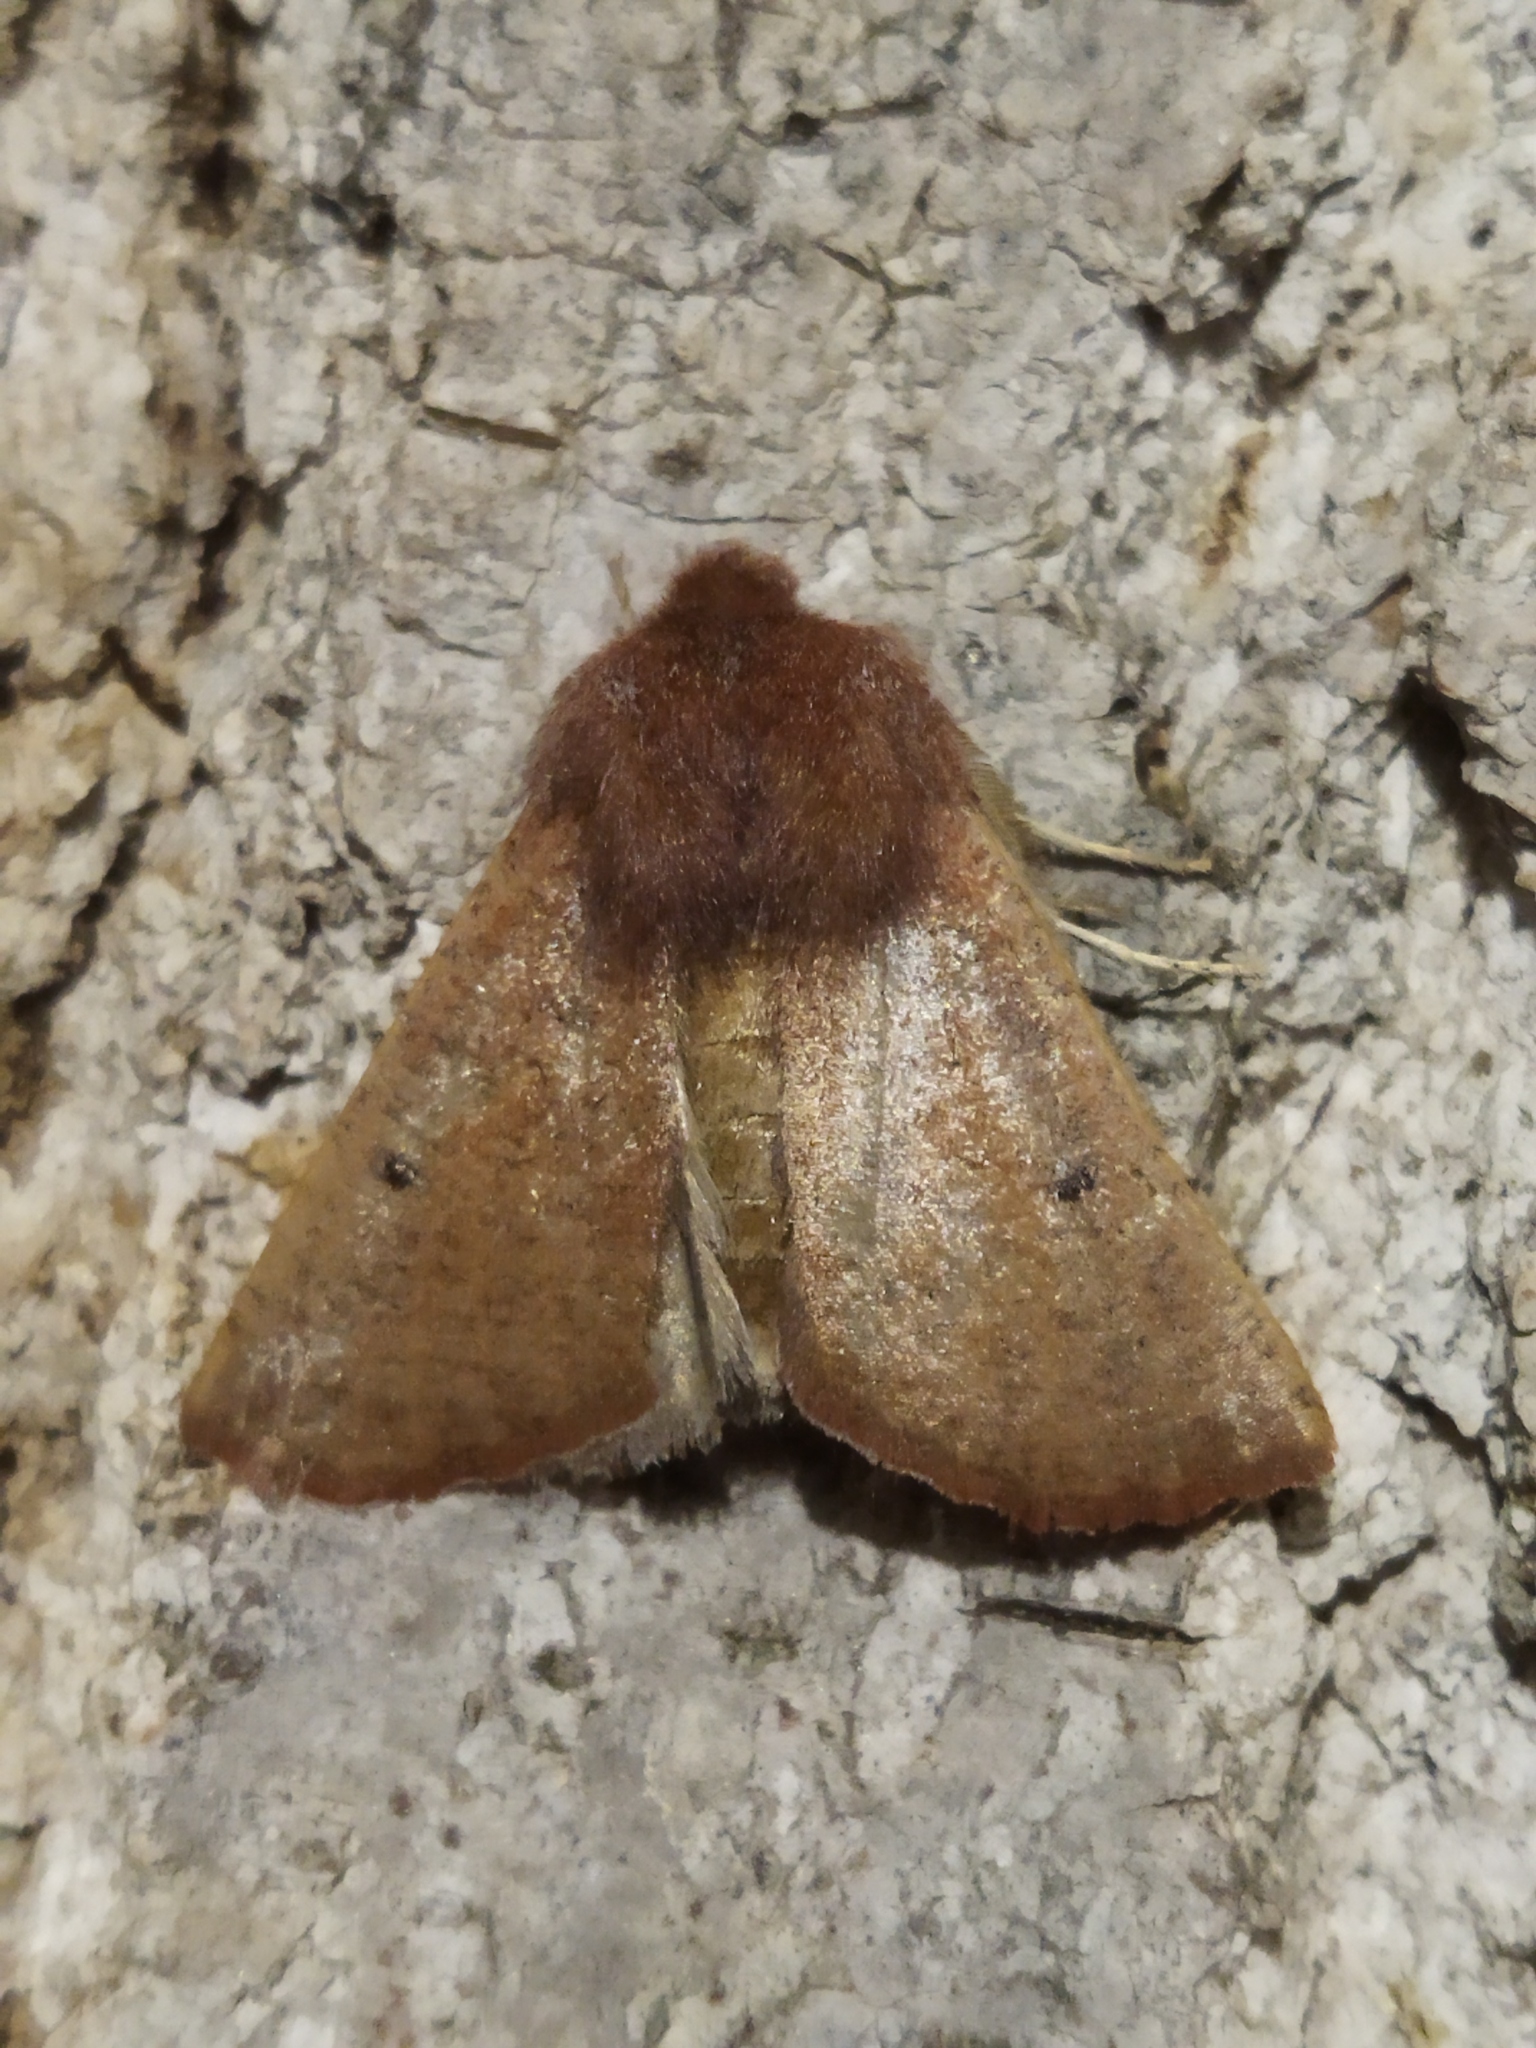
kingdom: Animalia
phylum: Arthropoda
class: Insecta
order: Lepidoptera
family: Geometridae
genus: Dasycorsa
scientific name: Dasycorsa modesta
